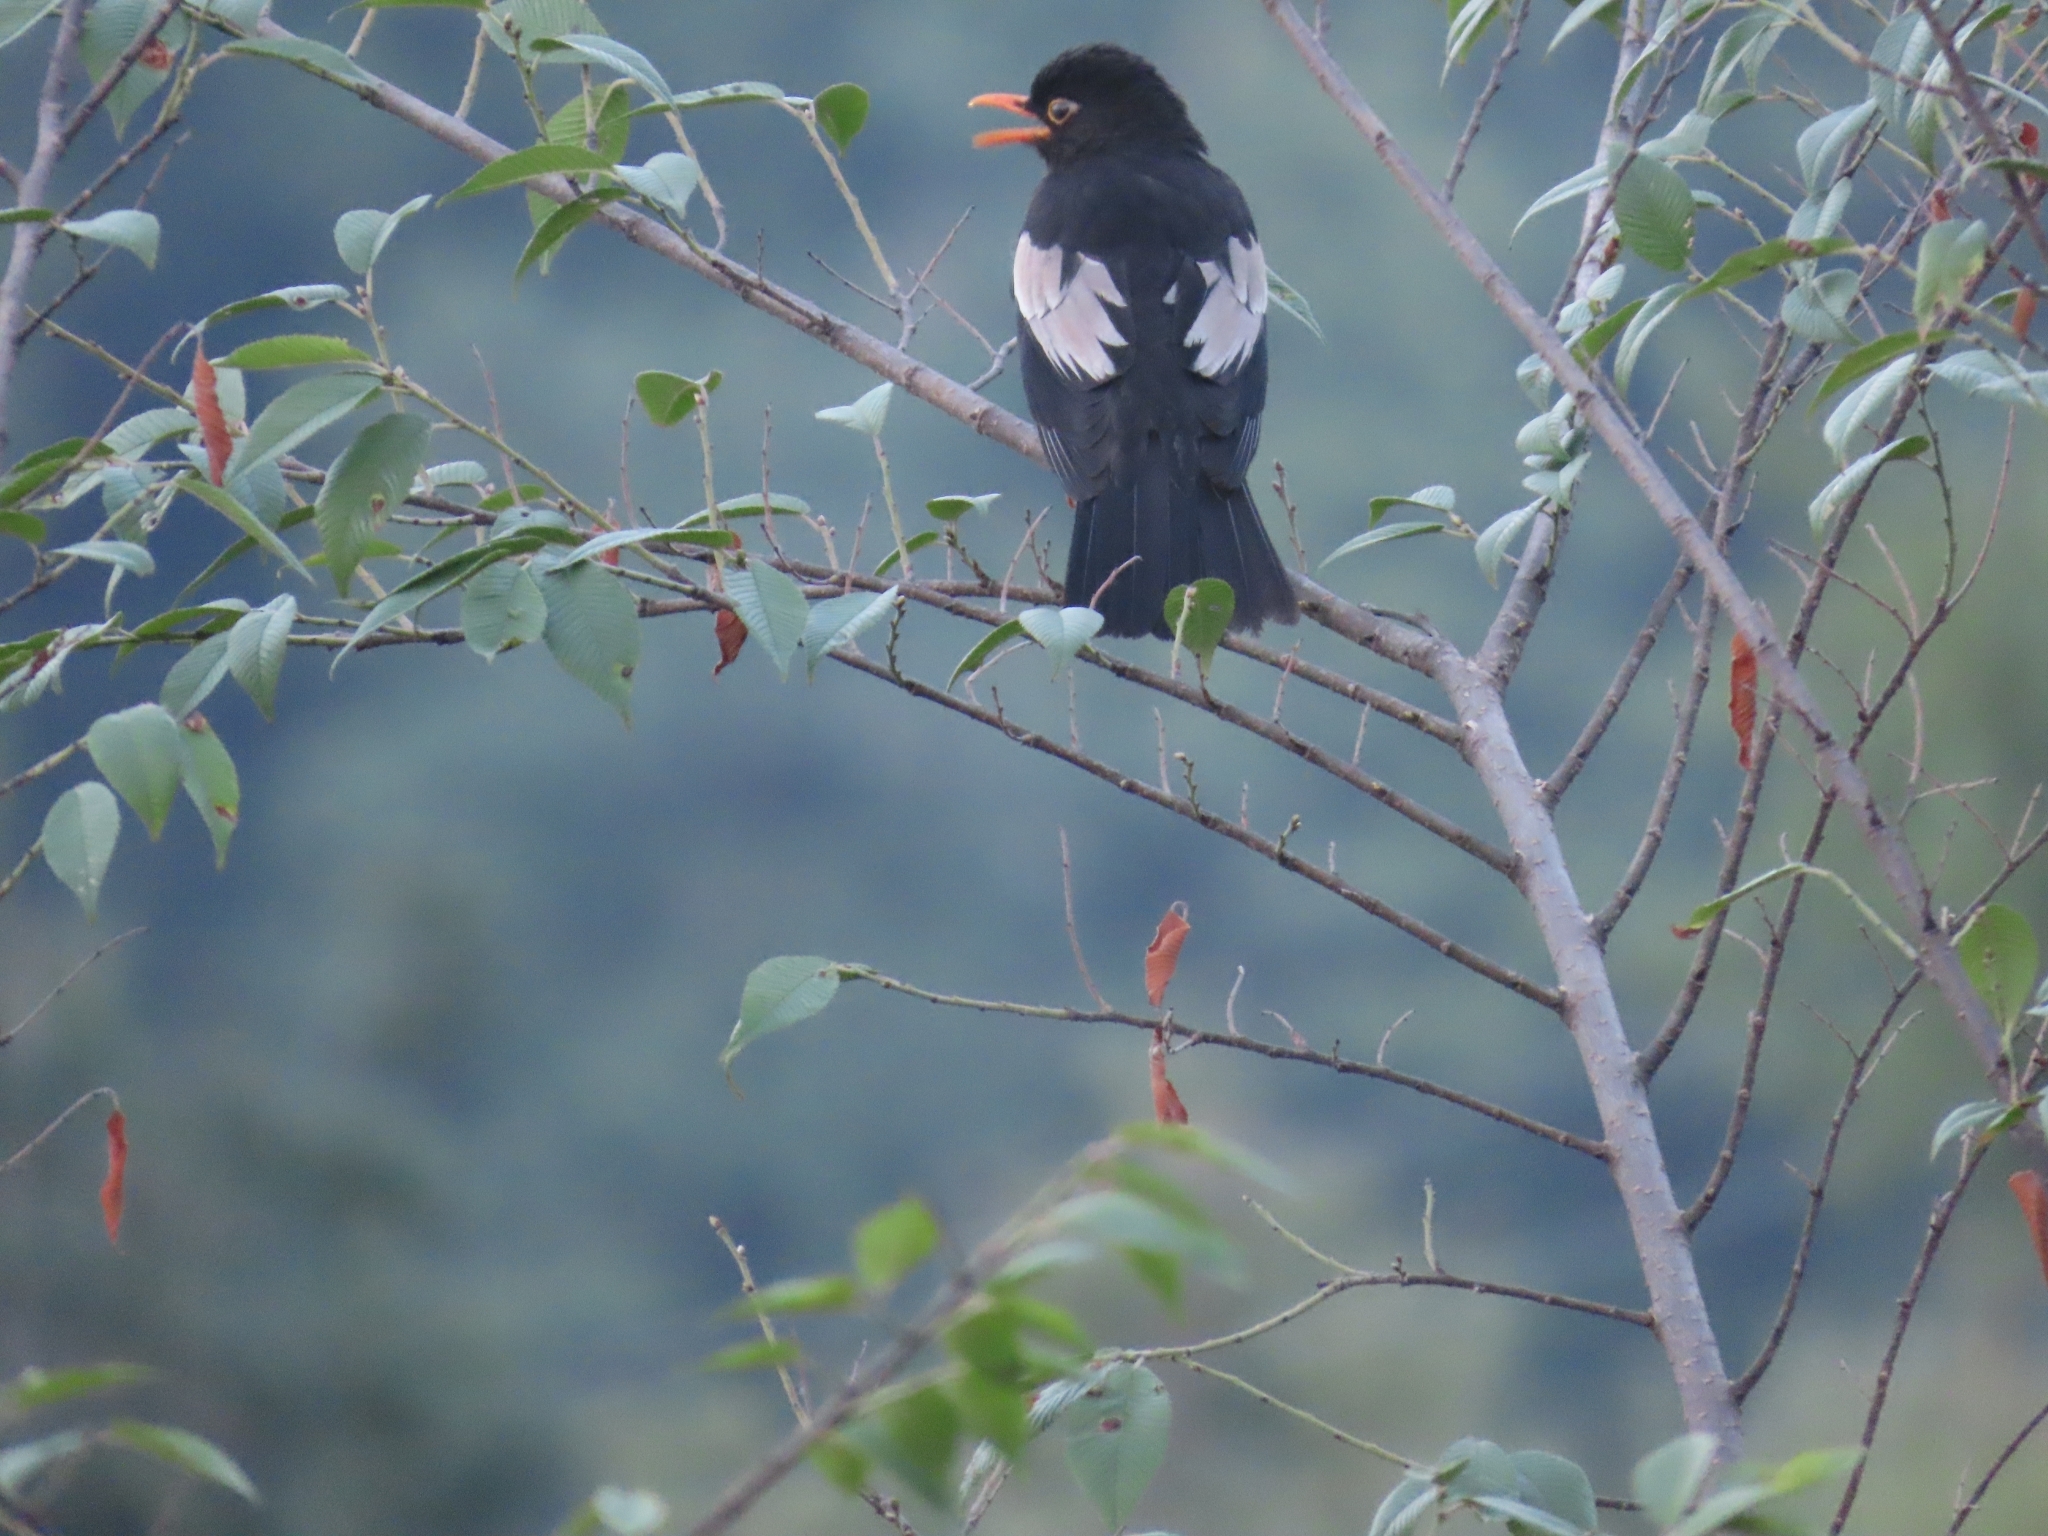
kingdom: Animalia
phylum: Chordata
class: Aves
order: Passeriformes
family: Turdidae
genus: Turdus
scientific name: Turdus boulboul
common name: Grey-winged blackbird
